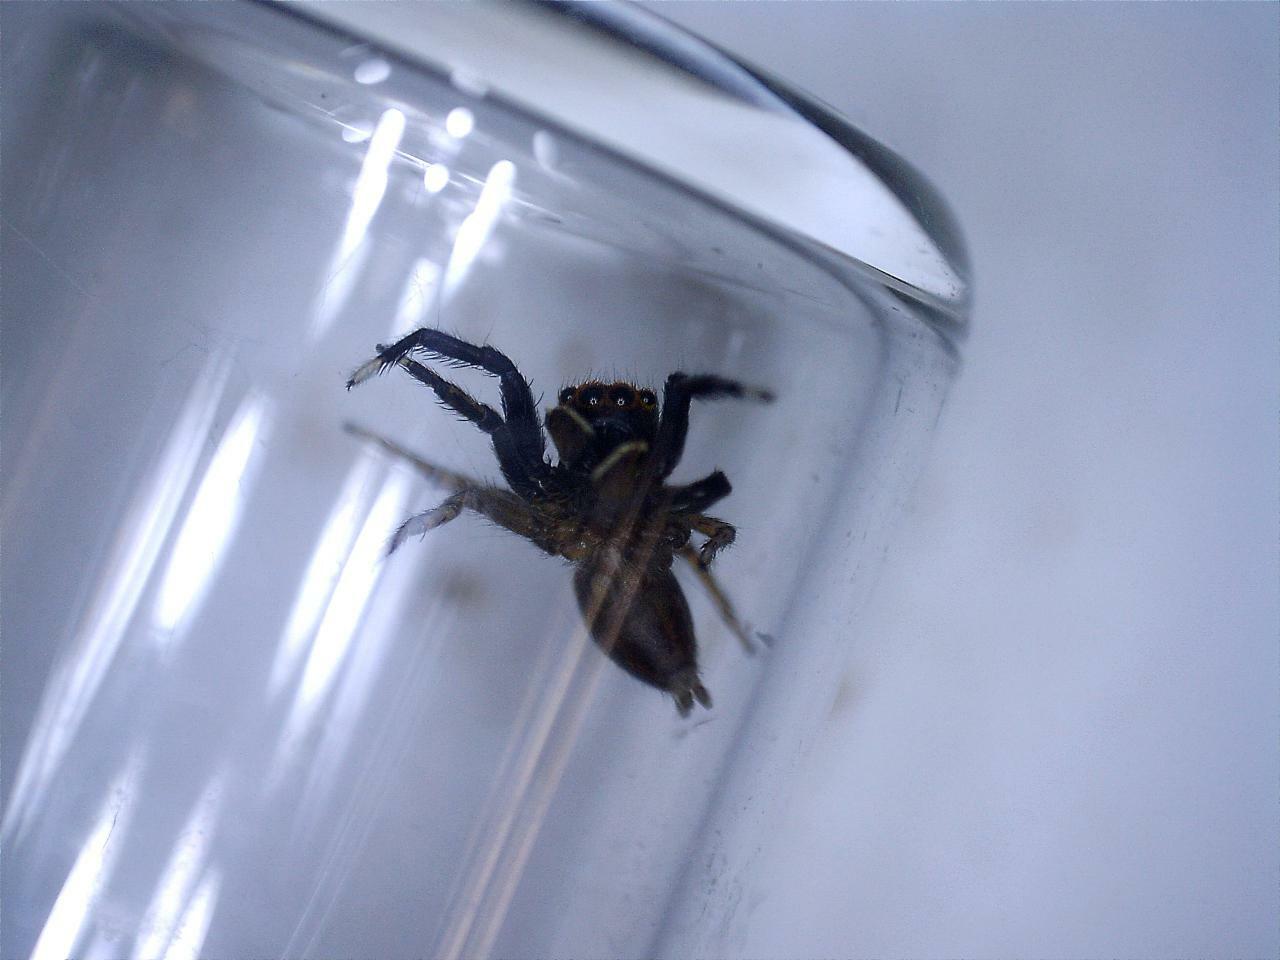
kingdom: Animalia
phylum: Arthropoda
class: Arachnida
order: Araneae
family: Salticidae
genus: Euophrys
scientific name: Euophrys frontalis
